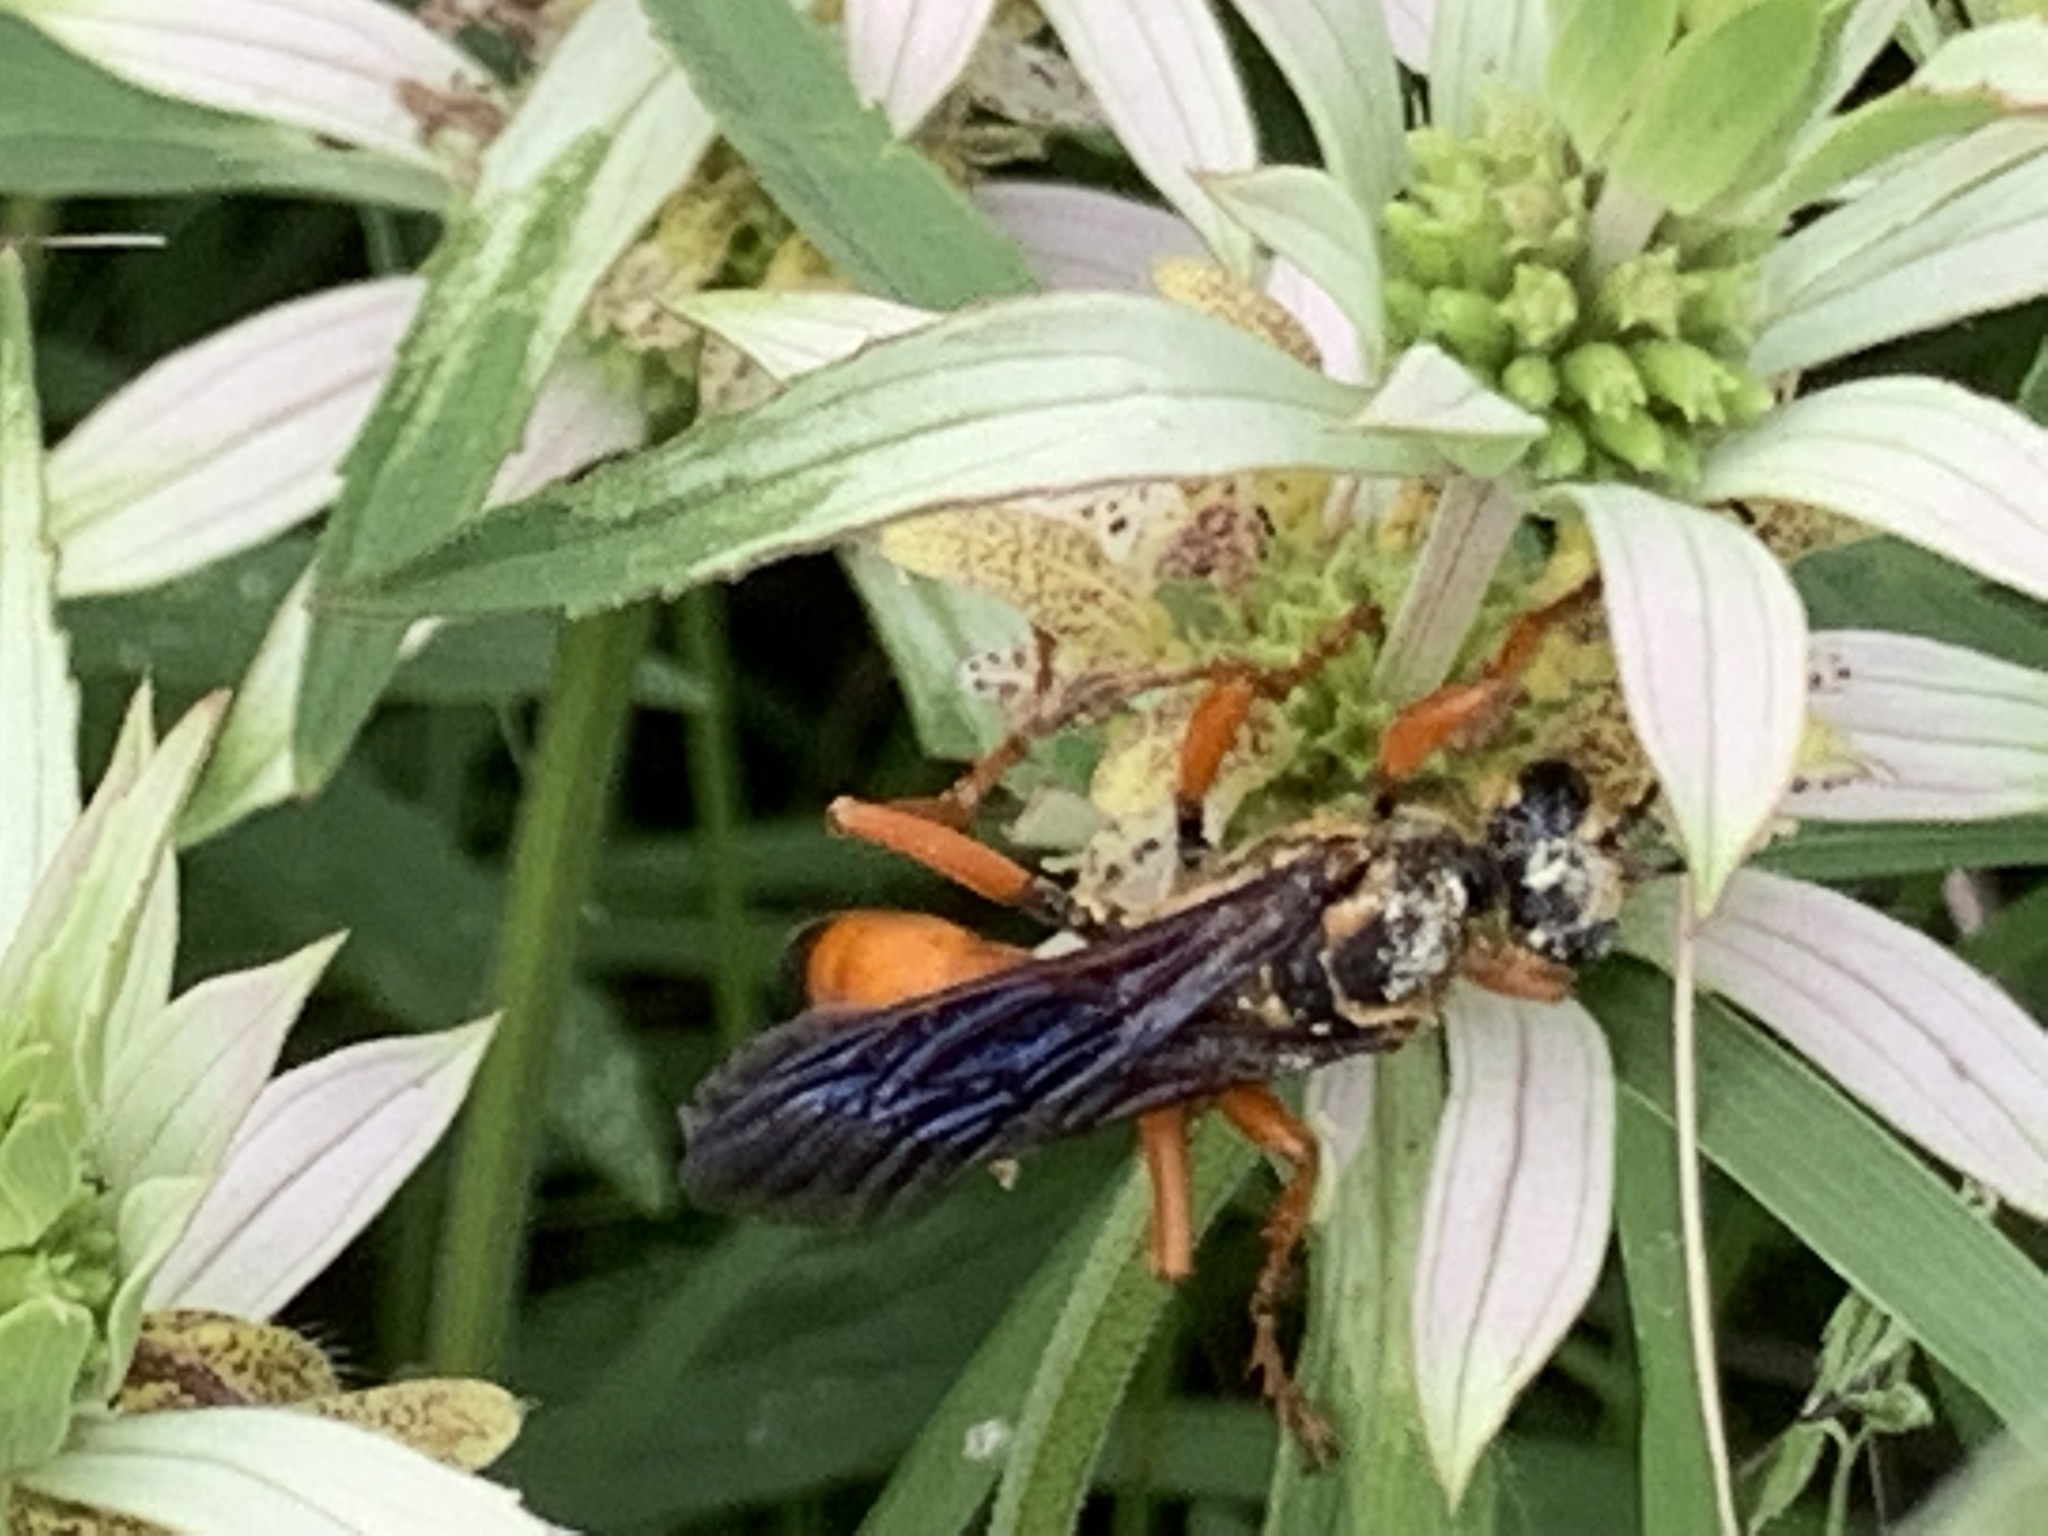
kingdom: Animalia
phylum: Arthropoda
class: Insecta
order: Hymenoptera
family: Sphecidae
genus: Sphex
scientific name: Sphex ichneumoneus
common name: Great golden digger wasp
